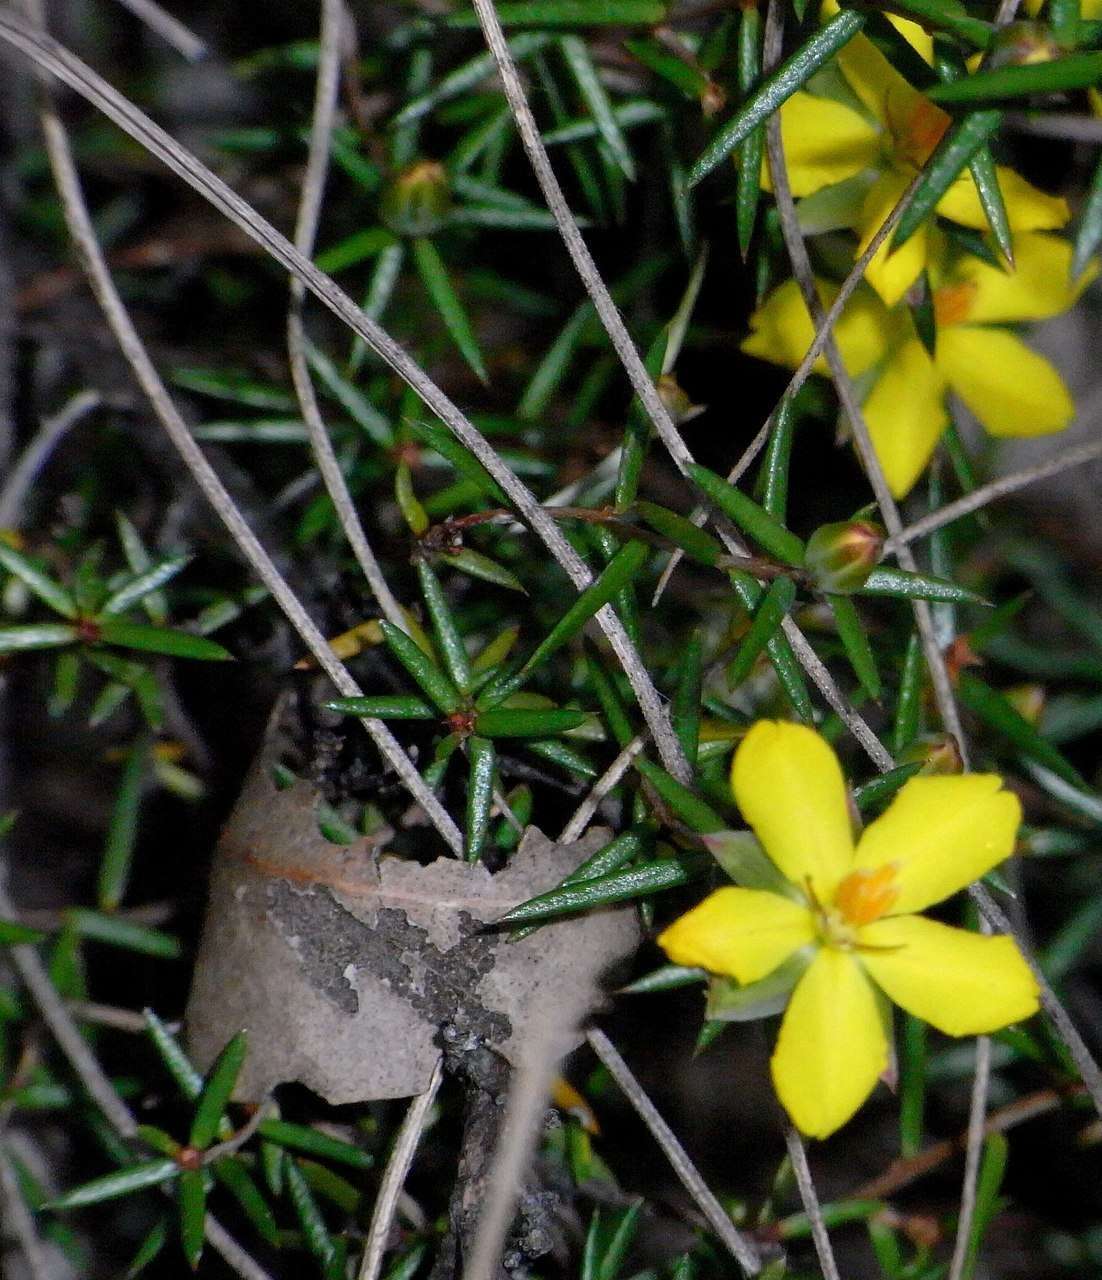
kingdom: Plantae
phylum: Tracheophyta
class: Magnoliopsida
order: Dilleniales
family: Dilleniaceae
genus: Hibbertia
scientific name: Hibbertia exutiacies
